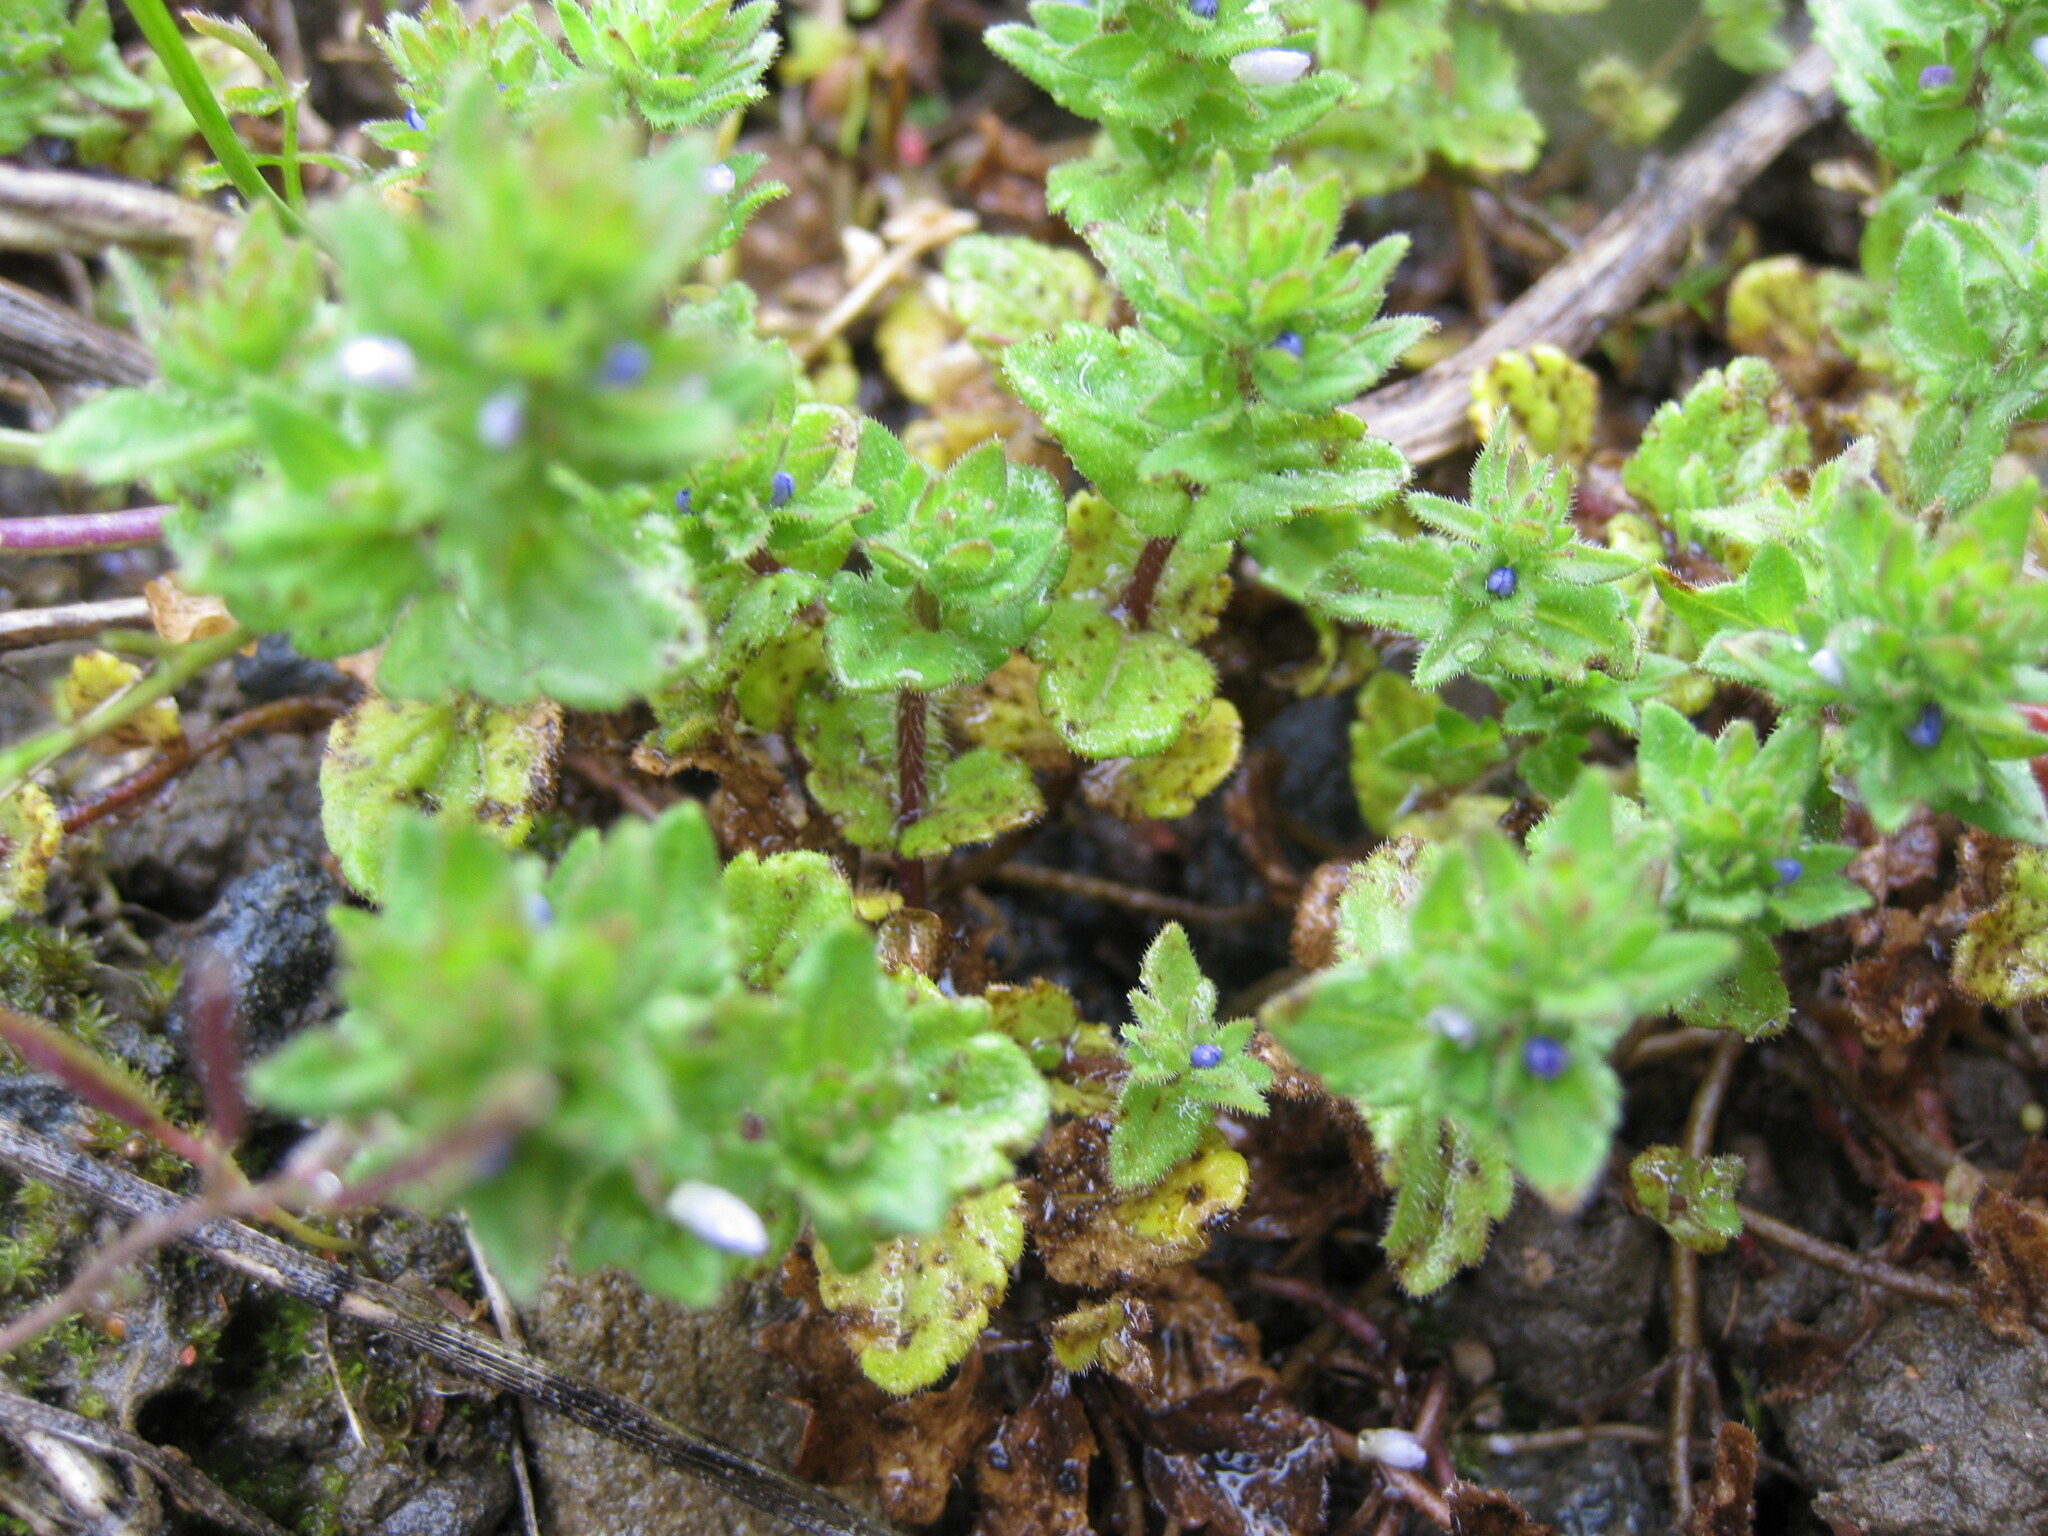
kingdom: Plantae
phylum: Tracheophyta
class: Magnoliopsida
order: Lamiales
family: Plantaginaceae
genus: Veronica
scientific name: Veronica arvensis
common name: Corn speedwell
